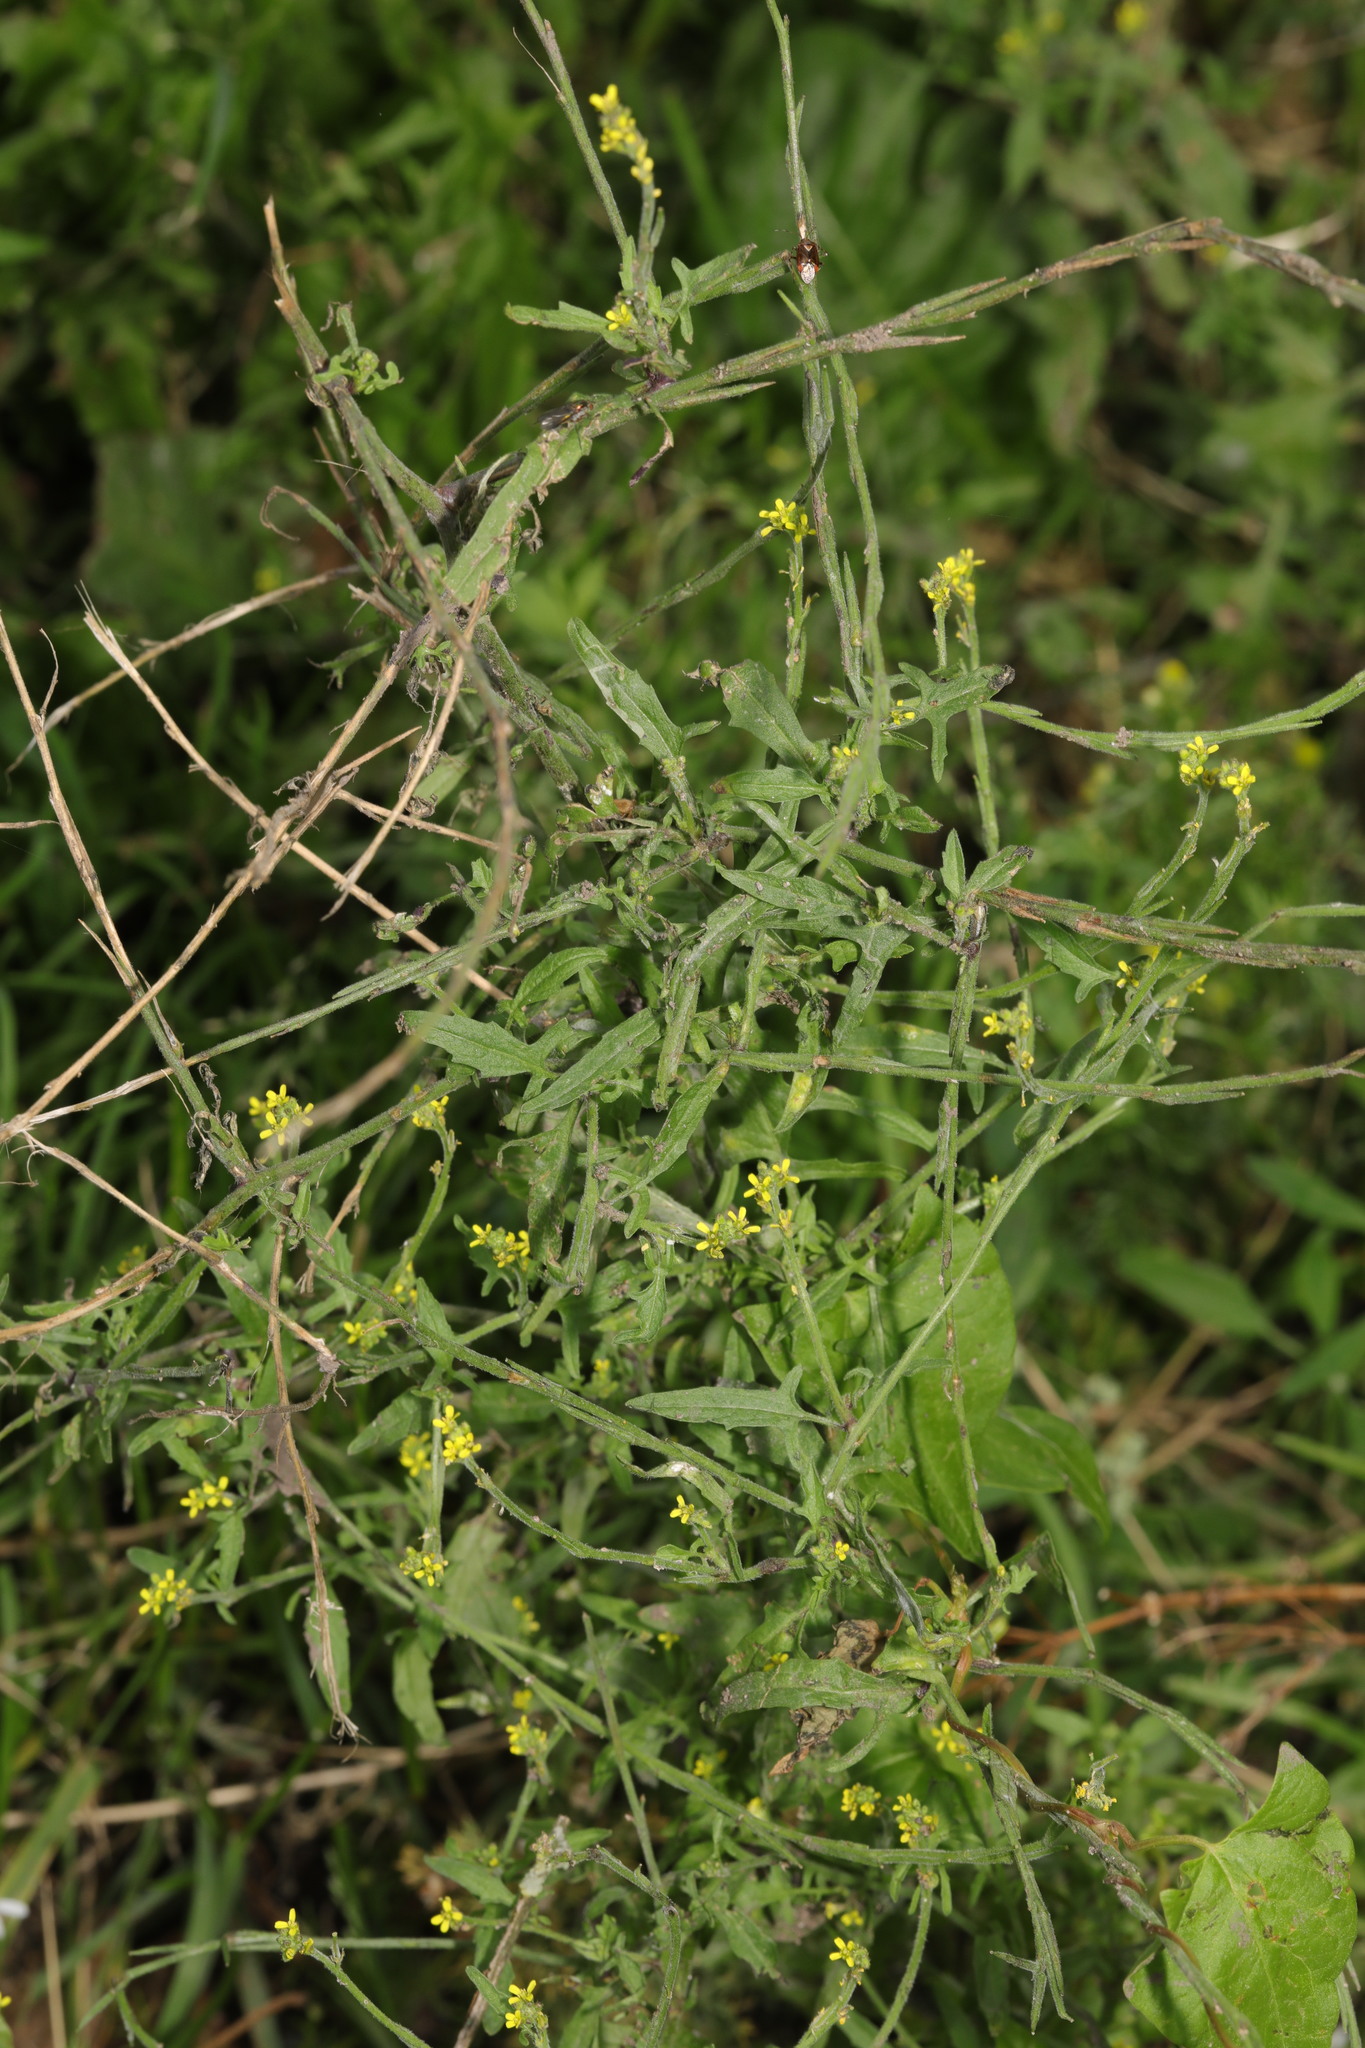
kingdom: Plantae
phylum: Tracheophyta
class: Magnoliopsida
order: Brassicales
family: Brassicaceae
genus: Sisymbrium
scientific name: Sisymbrium officinale
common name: Hedge mustard
